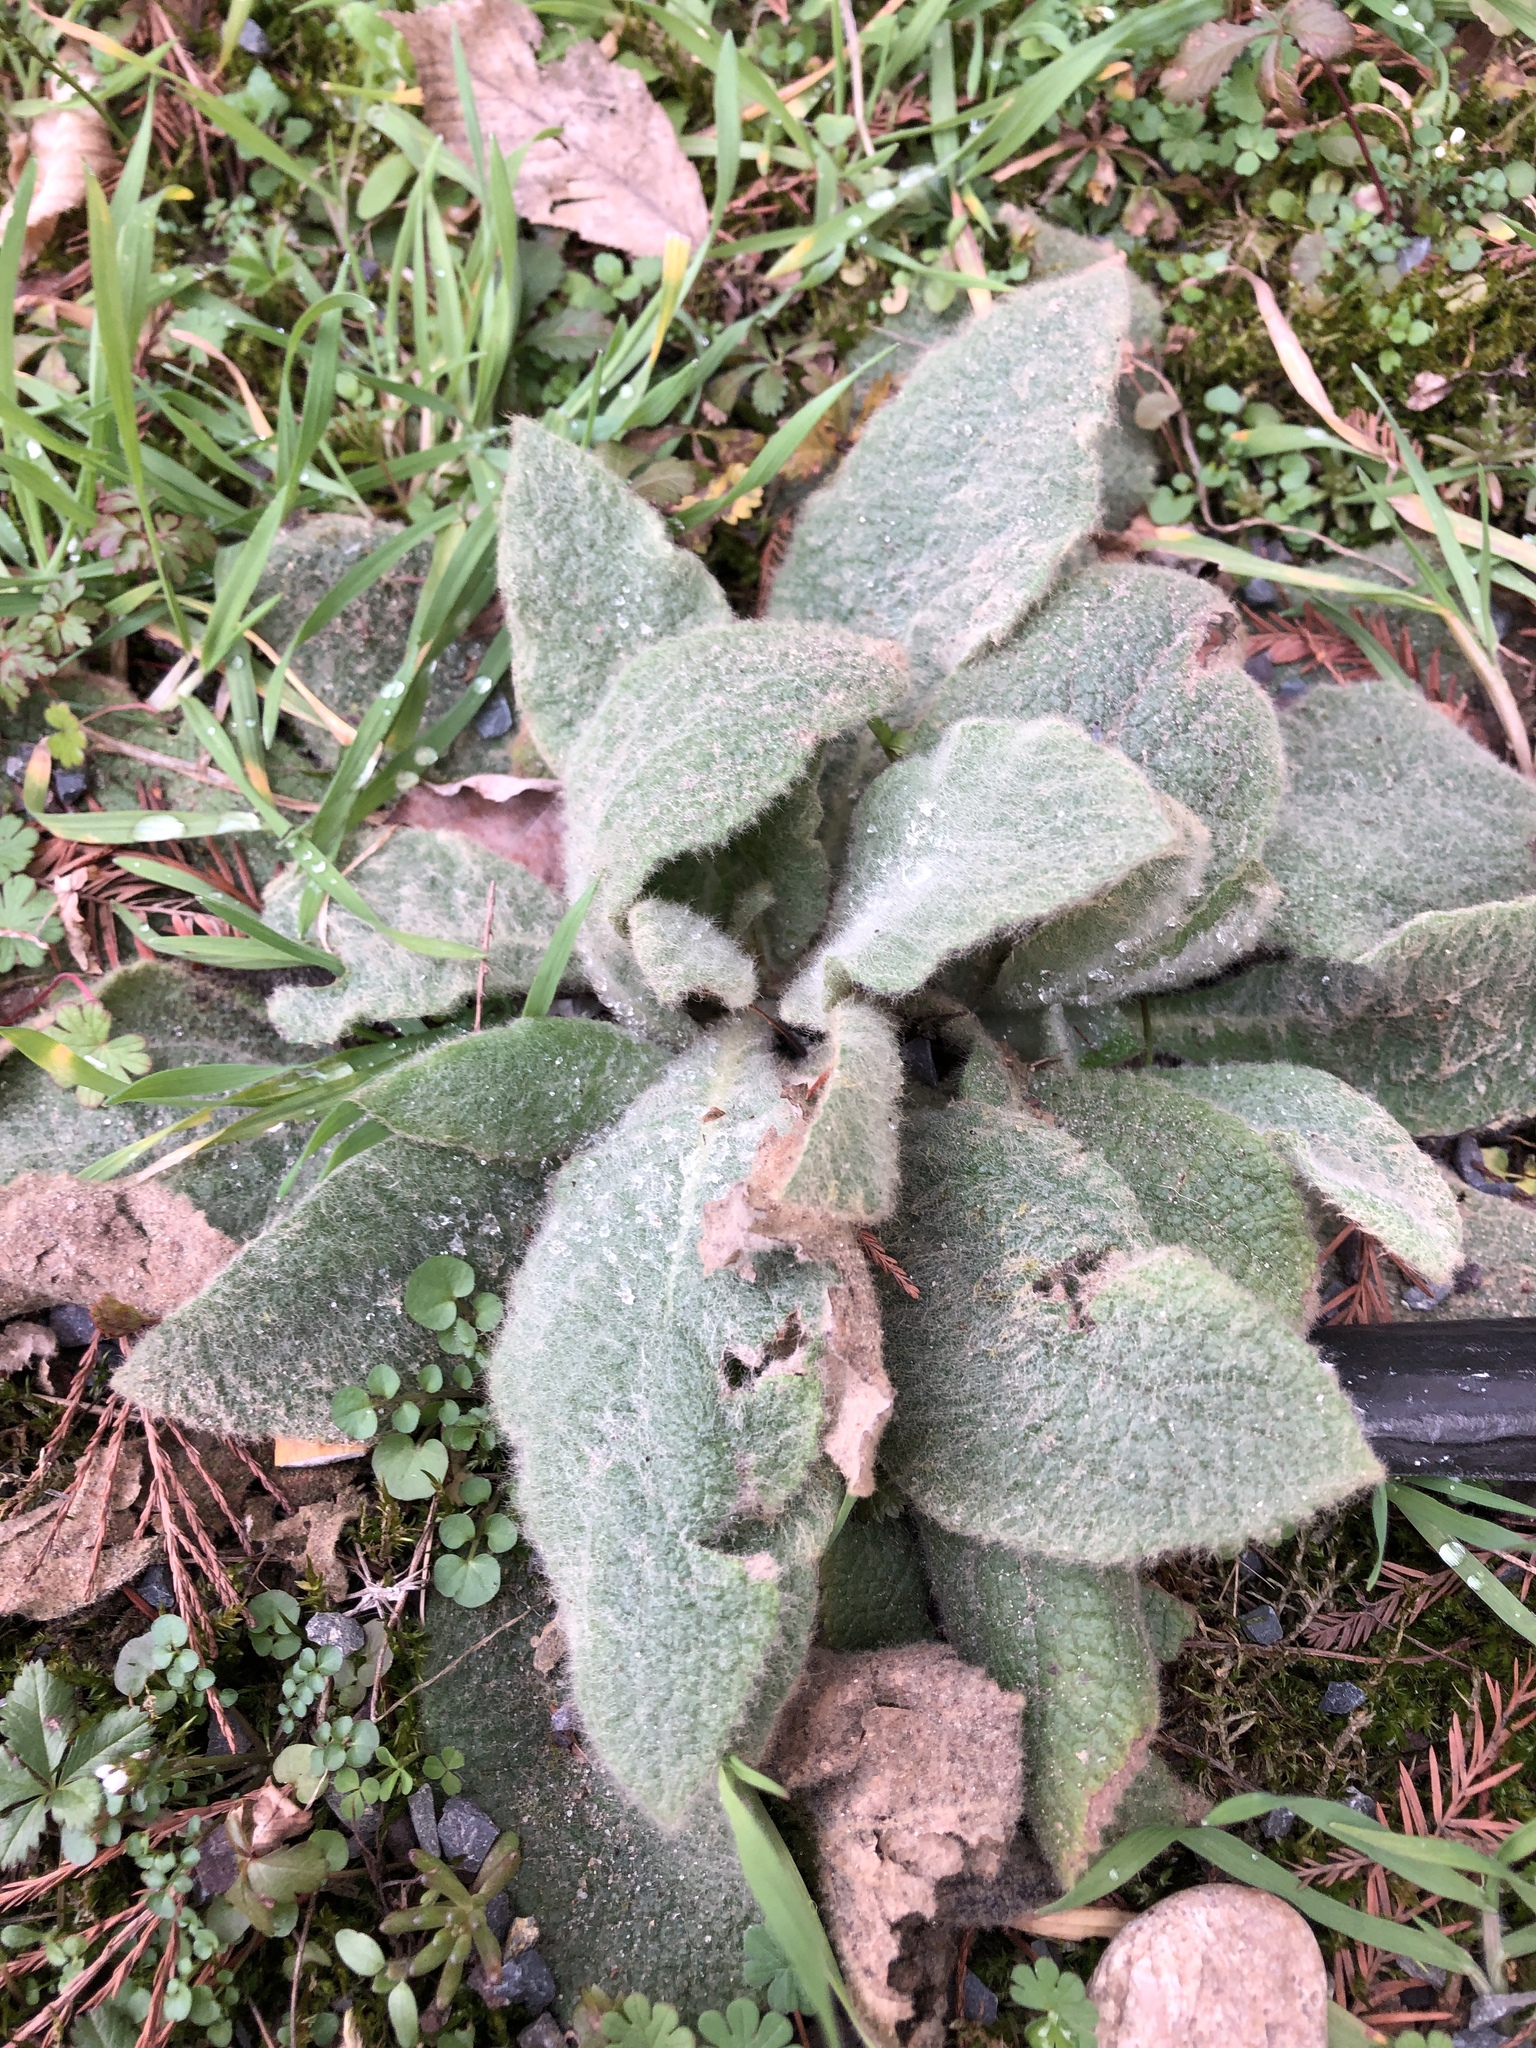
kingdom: Plantae
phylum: Tracheophyta
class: Magnoliopsida
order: Lamiales
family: Scrophulariaceae
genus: Verbascum
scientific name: Verbascum thapsus
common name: Common mullein
